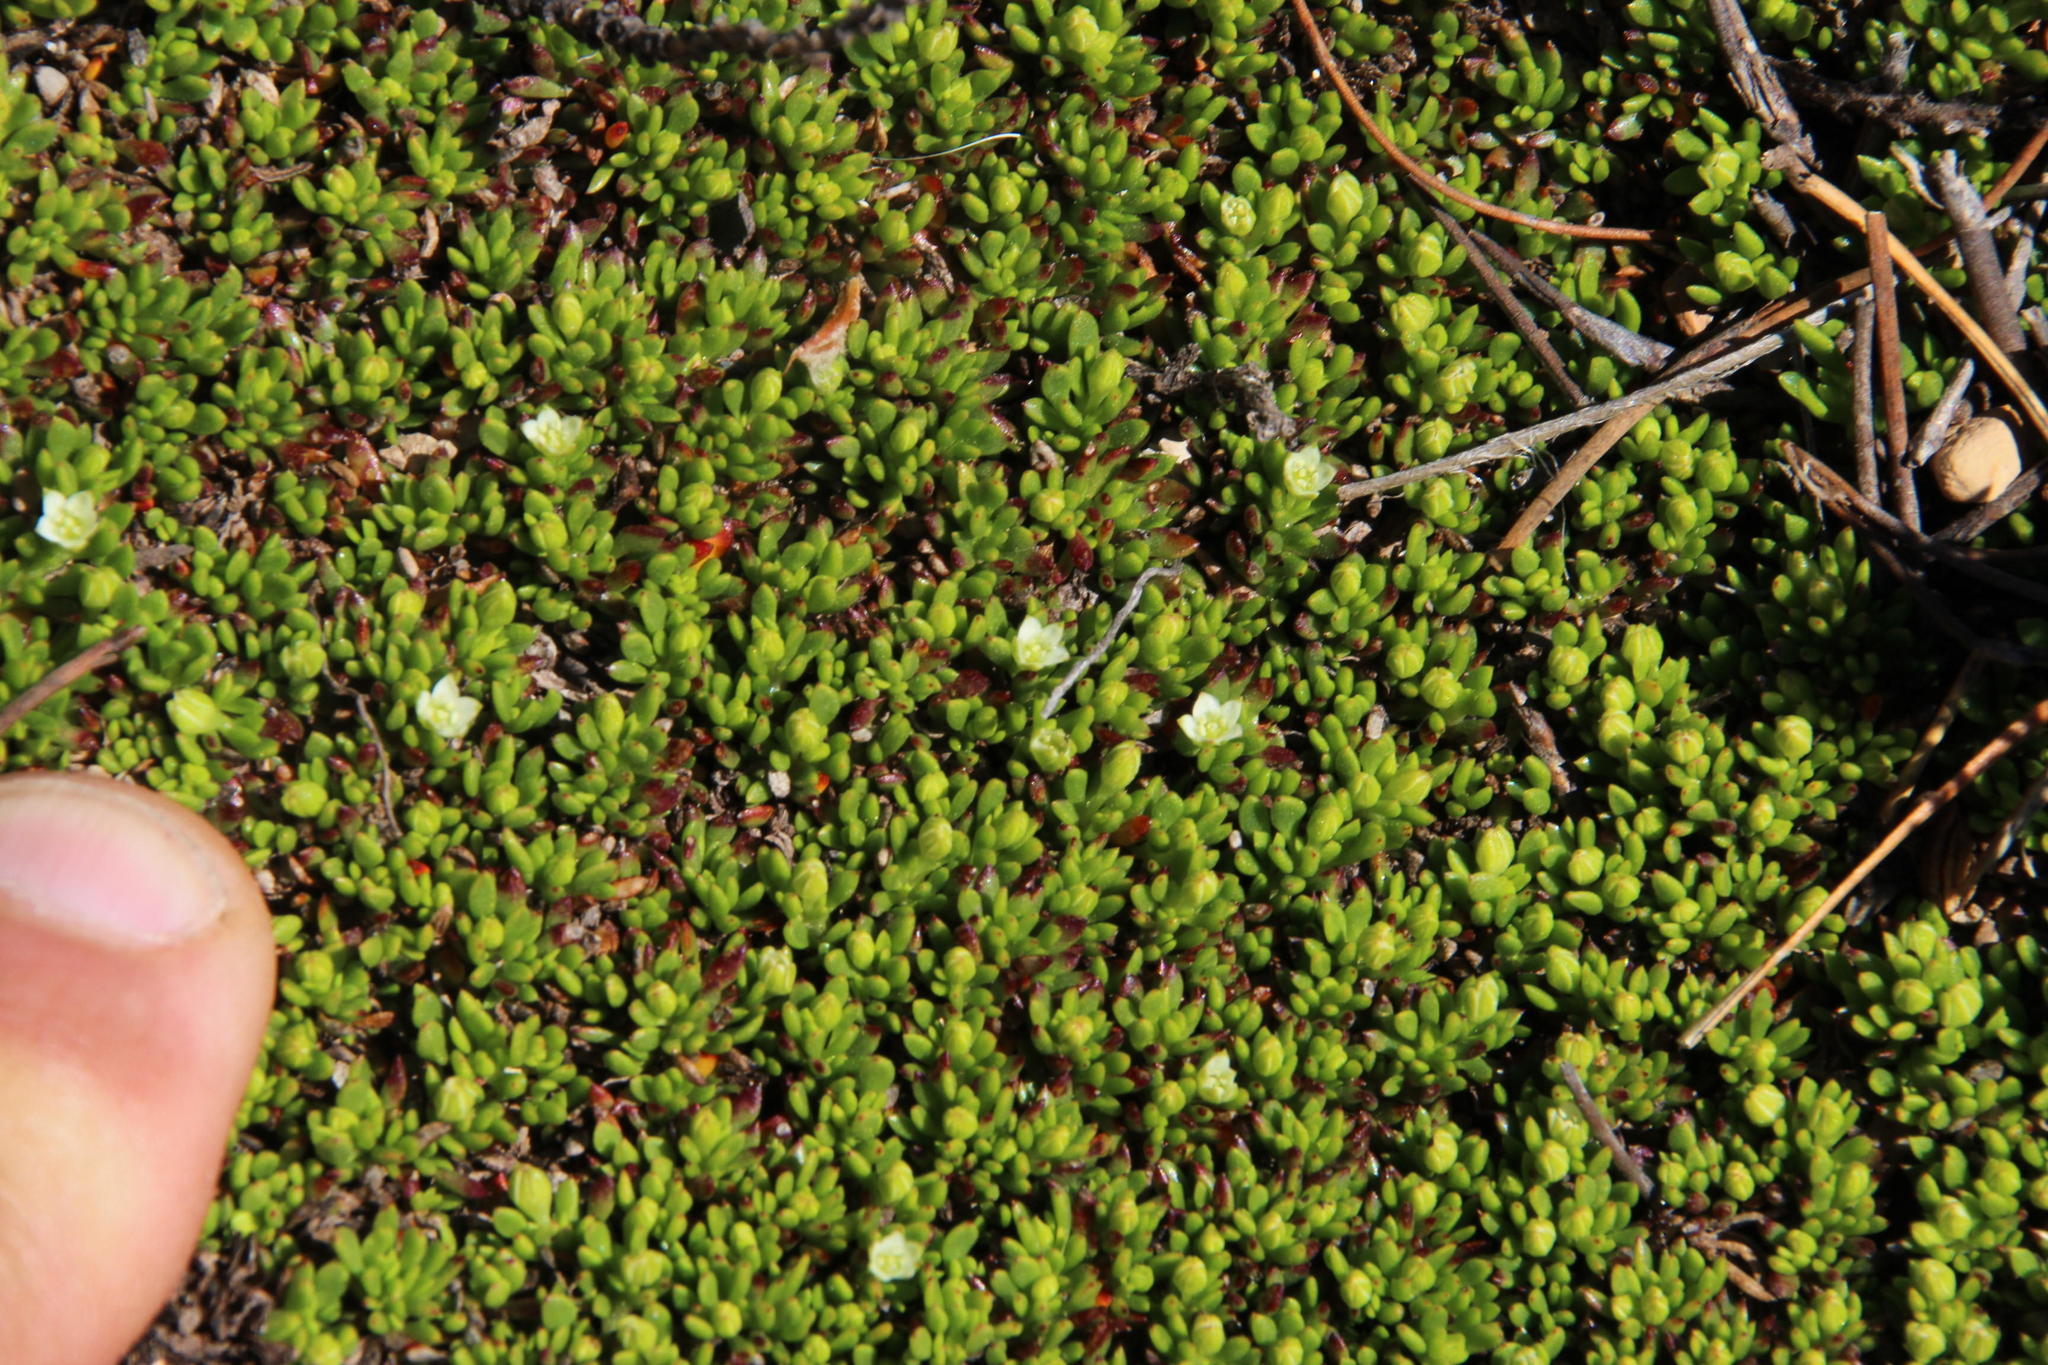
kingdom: Plantae
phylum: Tracheophyta
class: Magnoliopsida
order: Caryophyllales
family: Aizoaceae
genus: Acrosanthes
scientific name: Acrosanthes parviflora
